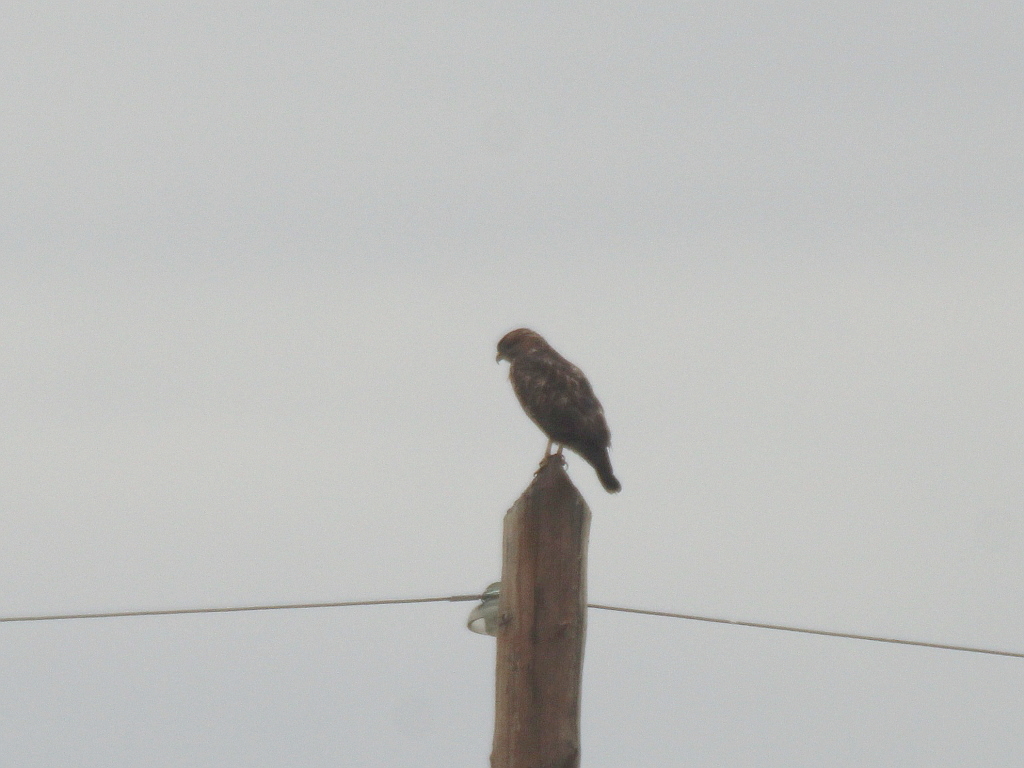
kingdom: Animalia
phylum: Chordata
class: Aves
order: Accipitriformes
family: Accipitridae
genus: Buteo
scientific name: Buteo buteo
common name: Common buzzard
